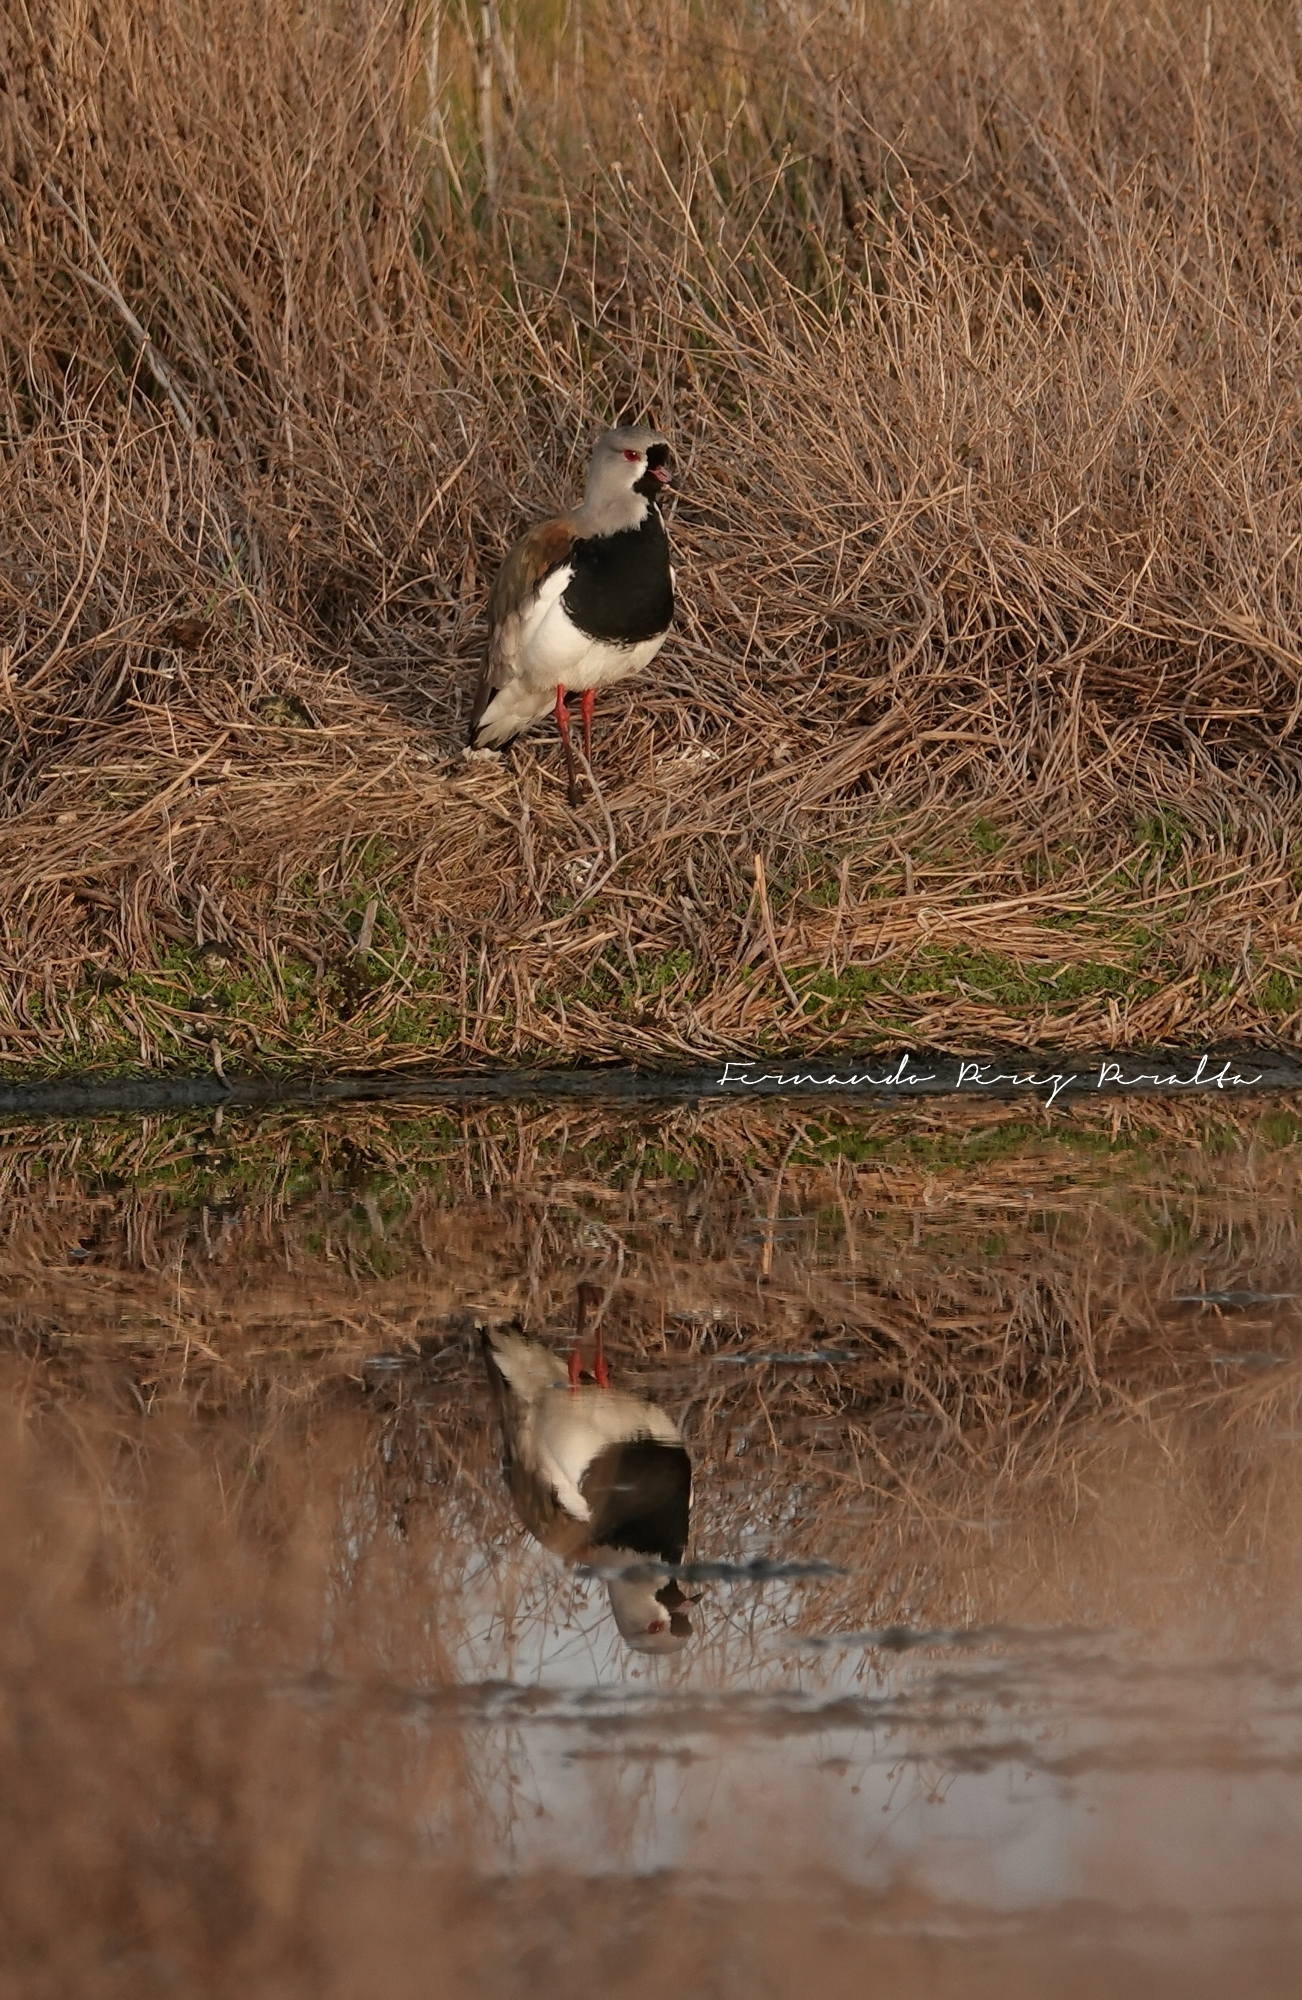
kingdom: Animalia
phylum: Chordata
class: Aves
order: Charadriiformes
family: Charadriidae
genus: Vanellus
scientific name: Vanellus chilensis
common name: Southern lapwing
